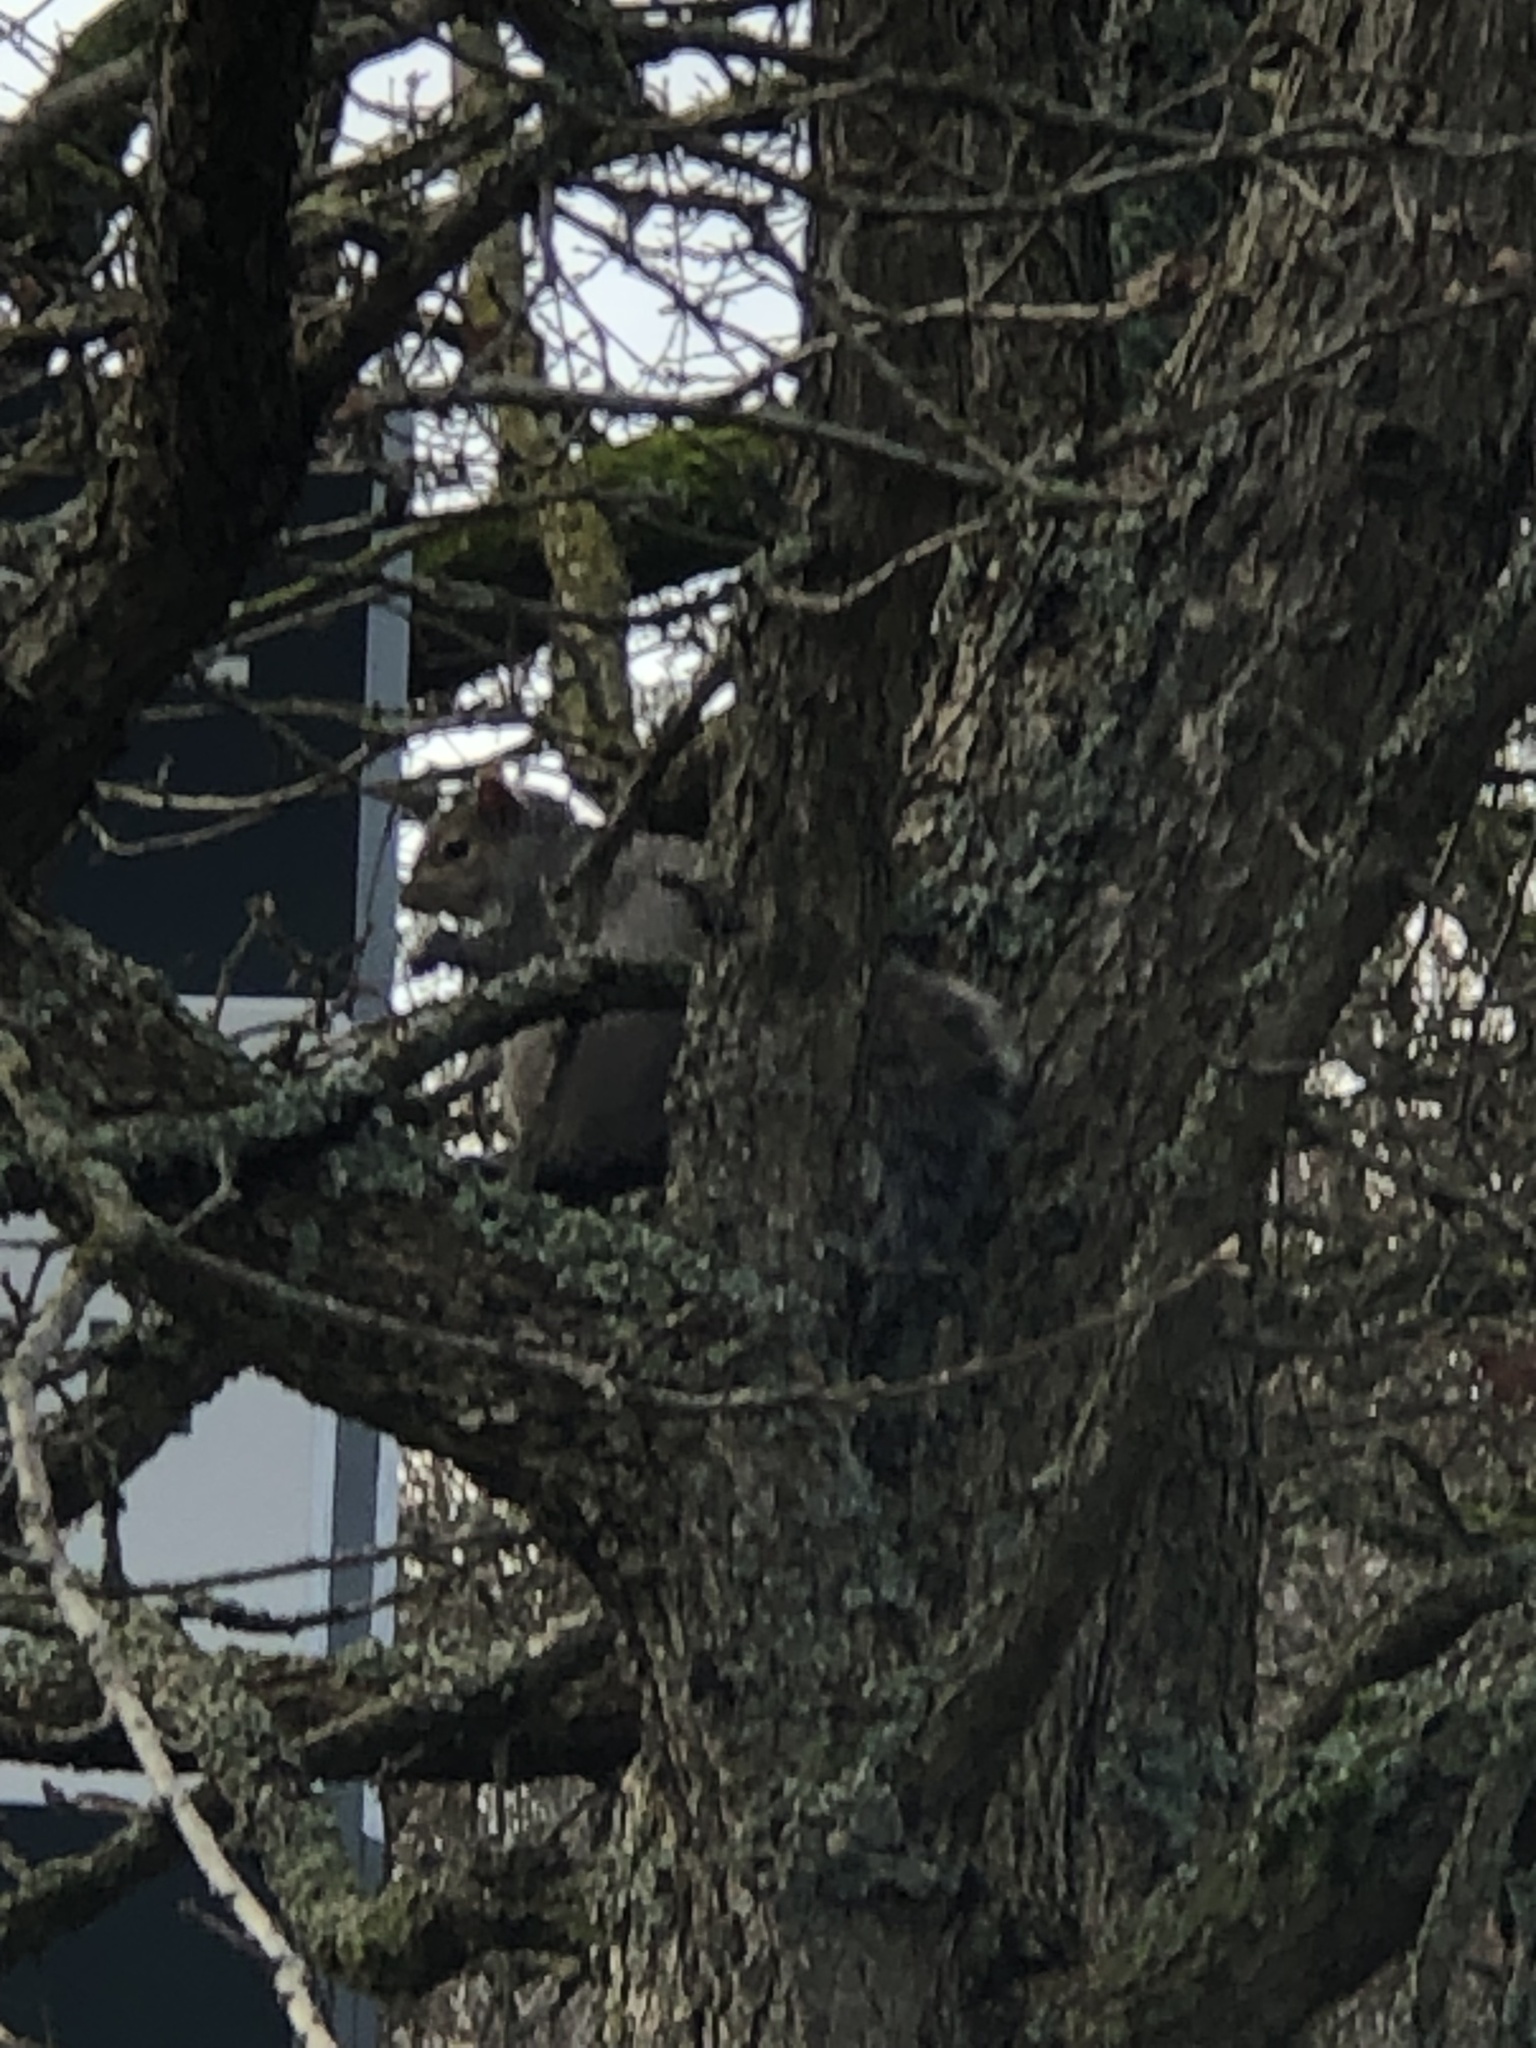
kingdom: Animalia
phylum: Chordata
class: Mammalia
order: Rodentia
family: Sciuridae
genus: Sciurus
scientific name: Sciurus carolinensis
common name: Eastern gray squirrel
